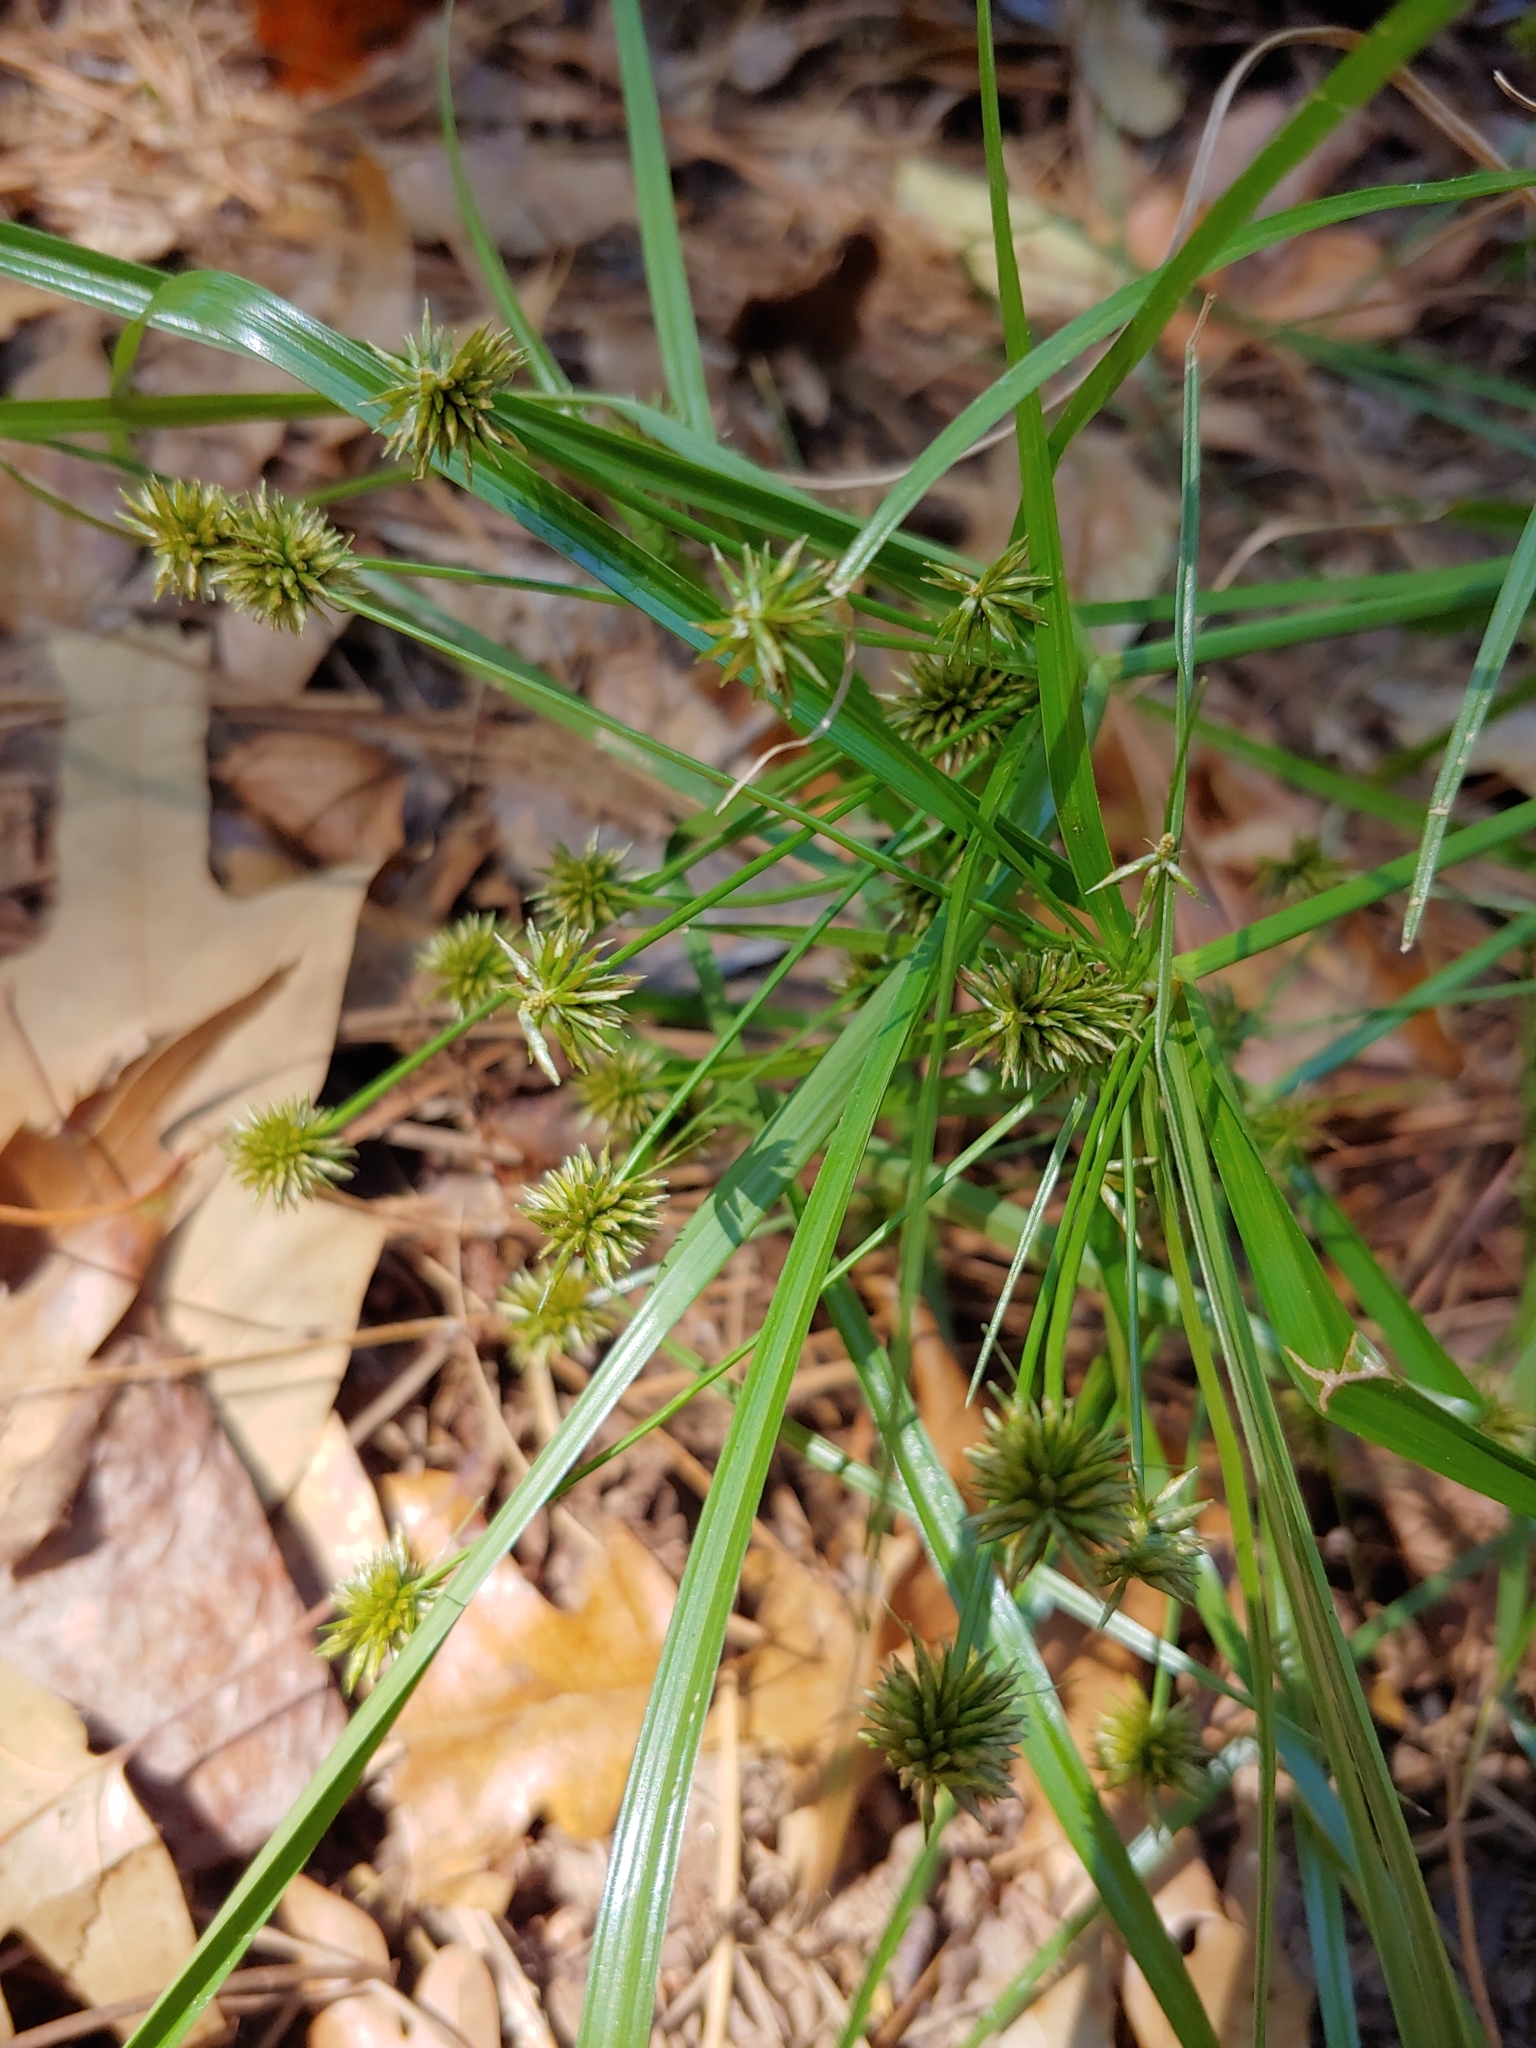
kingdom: Plantae
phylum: Tracheophyta
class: Liliopsida
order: Poales
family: Cyperaceae
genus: Cyperus
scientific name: Cyperus croceus
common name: Baldwin's flatsedge
